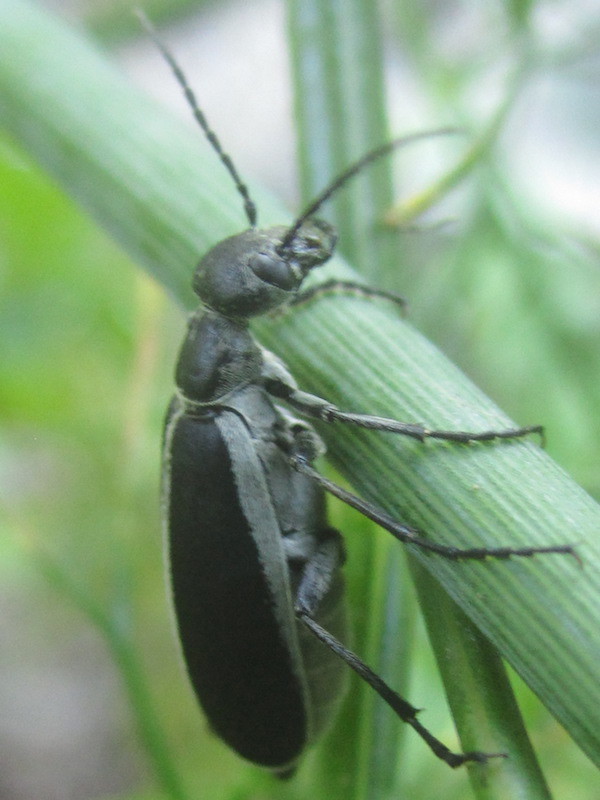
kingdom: Animalia
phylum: Arthropoda
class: Insecta
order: Coleoptera
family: Meloidae
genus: Epicauta
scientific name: Epicauta funebris
